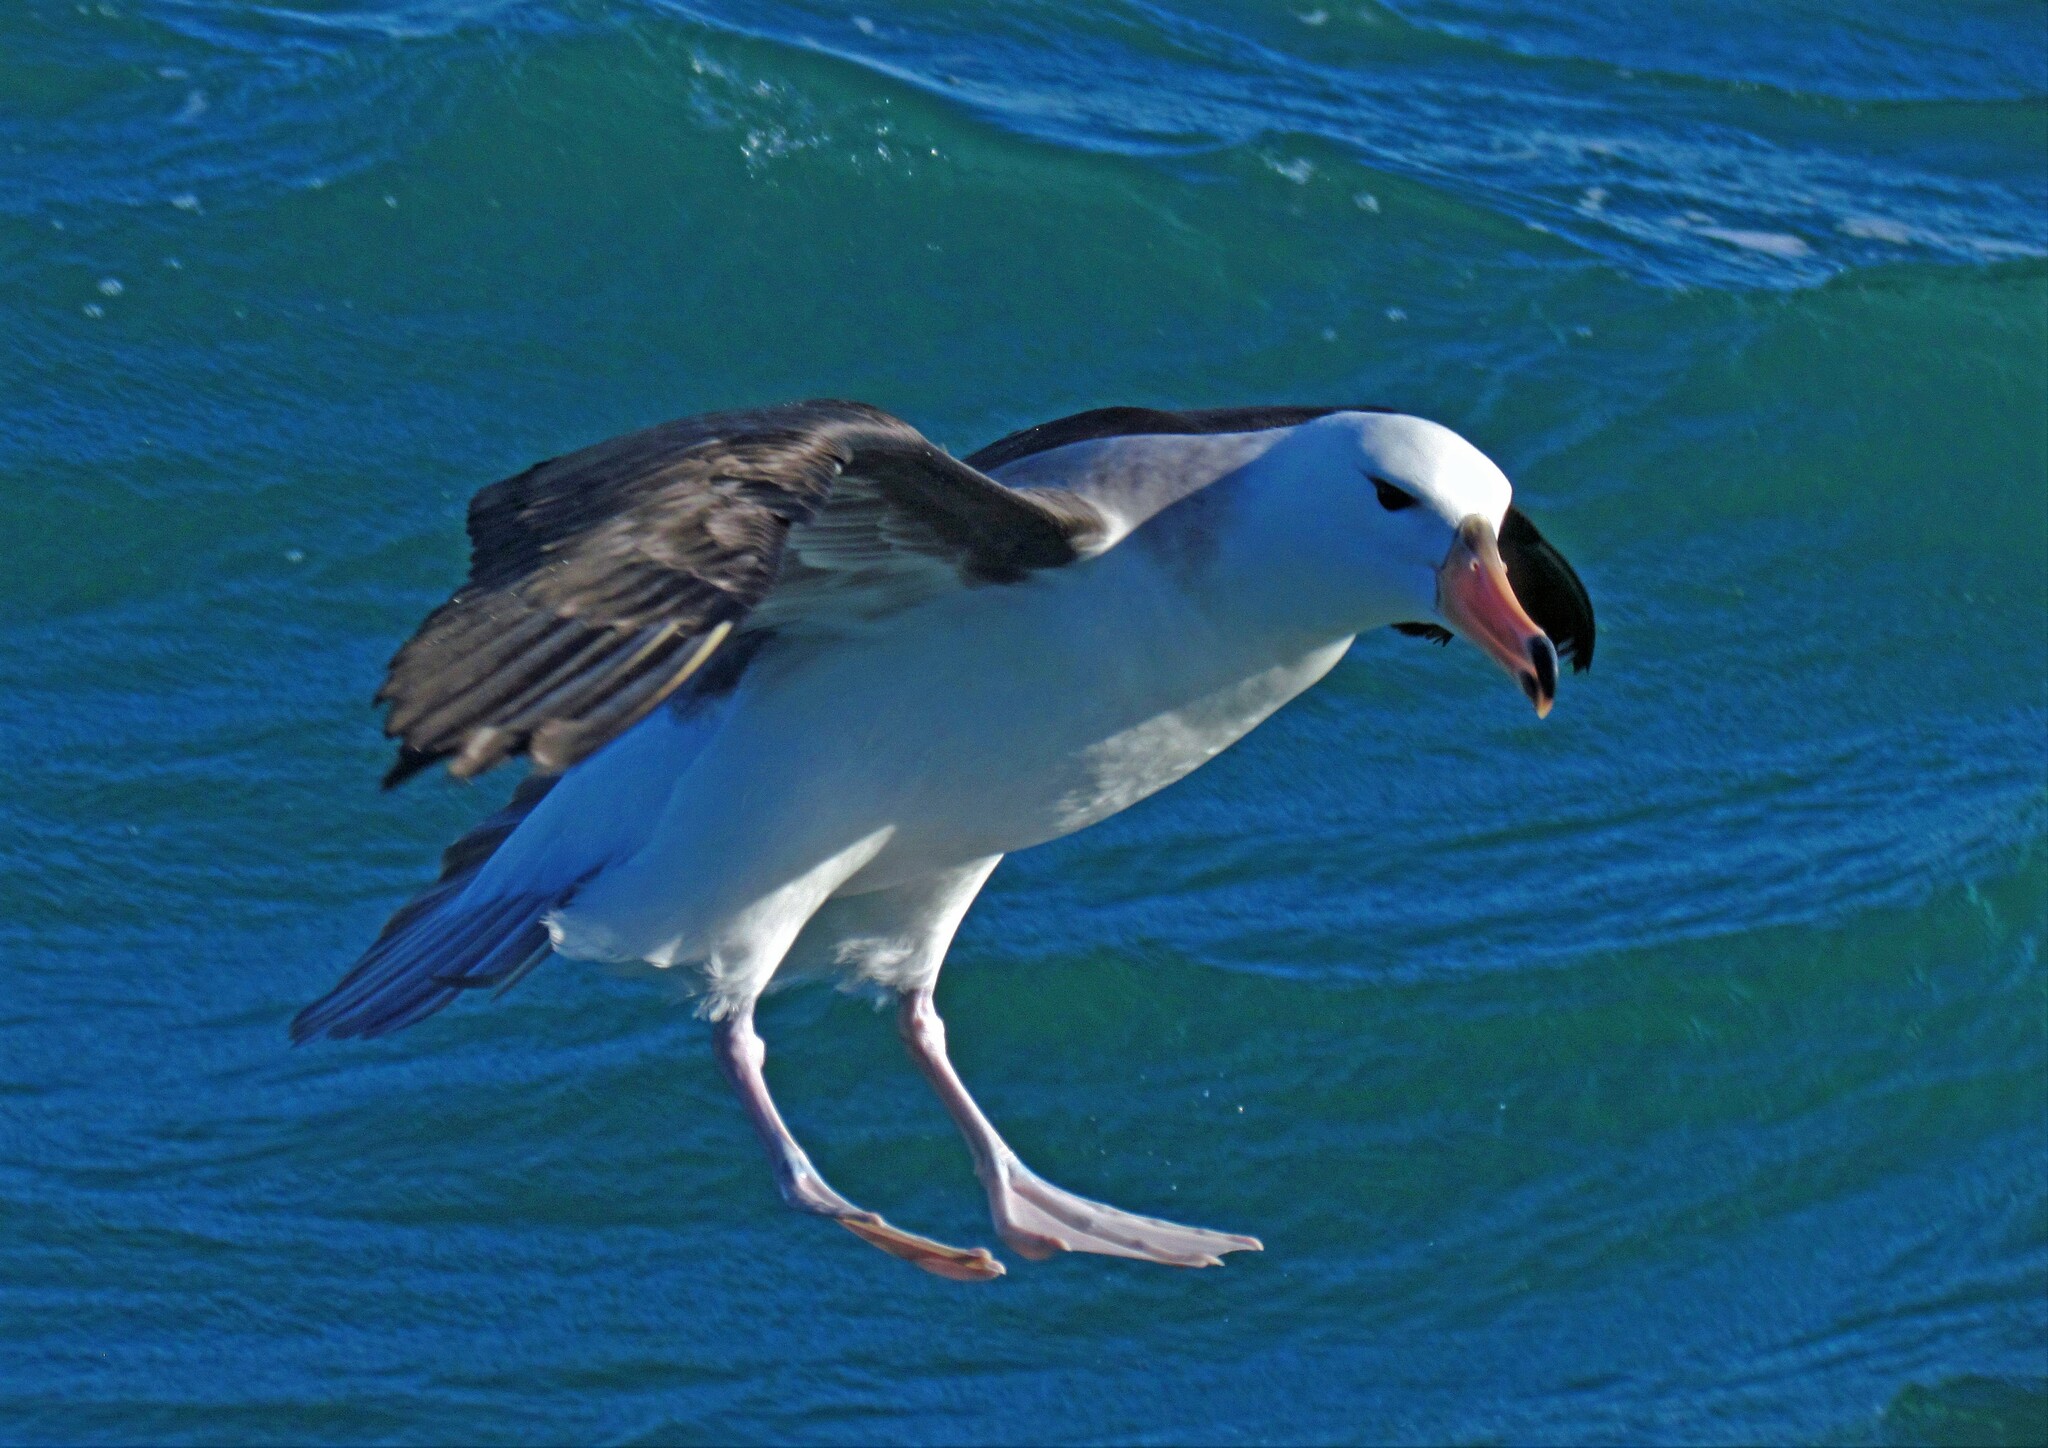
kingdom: Animalia
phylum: Chordata
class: Aves
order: Procellariiformes
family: Diomedeidae
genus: Thalassarche
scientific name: Thalassarche melanophris
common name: Black-browed albatross
